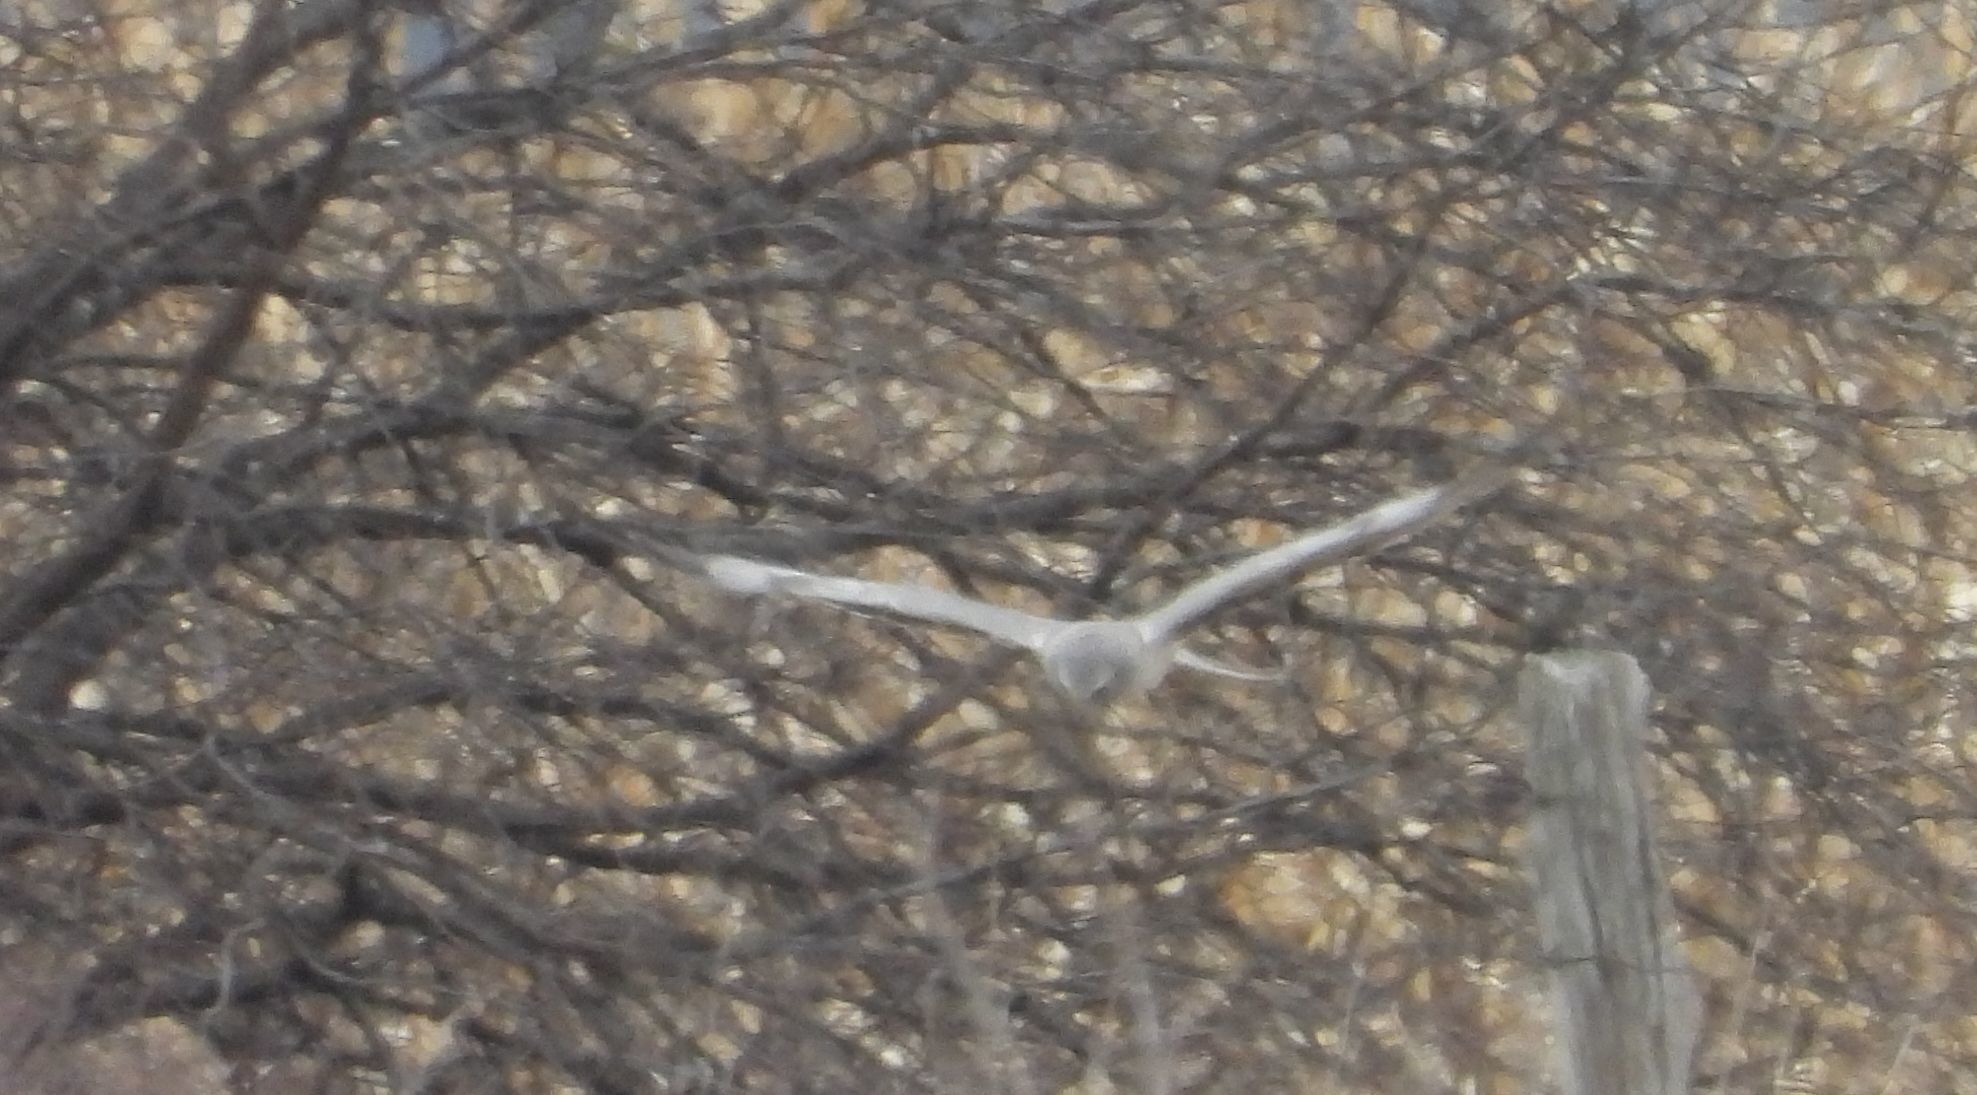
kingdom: Animalia
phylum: Chordata
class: Aves
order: Accipitriformes
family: Accipitridae
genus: Circus
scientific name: Circus cyaneus
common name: Hen harrier
